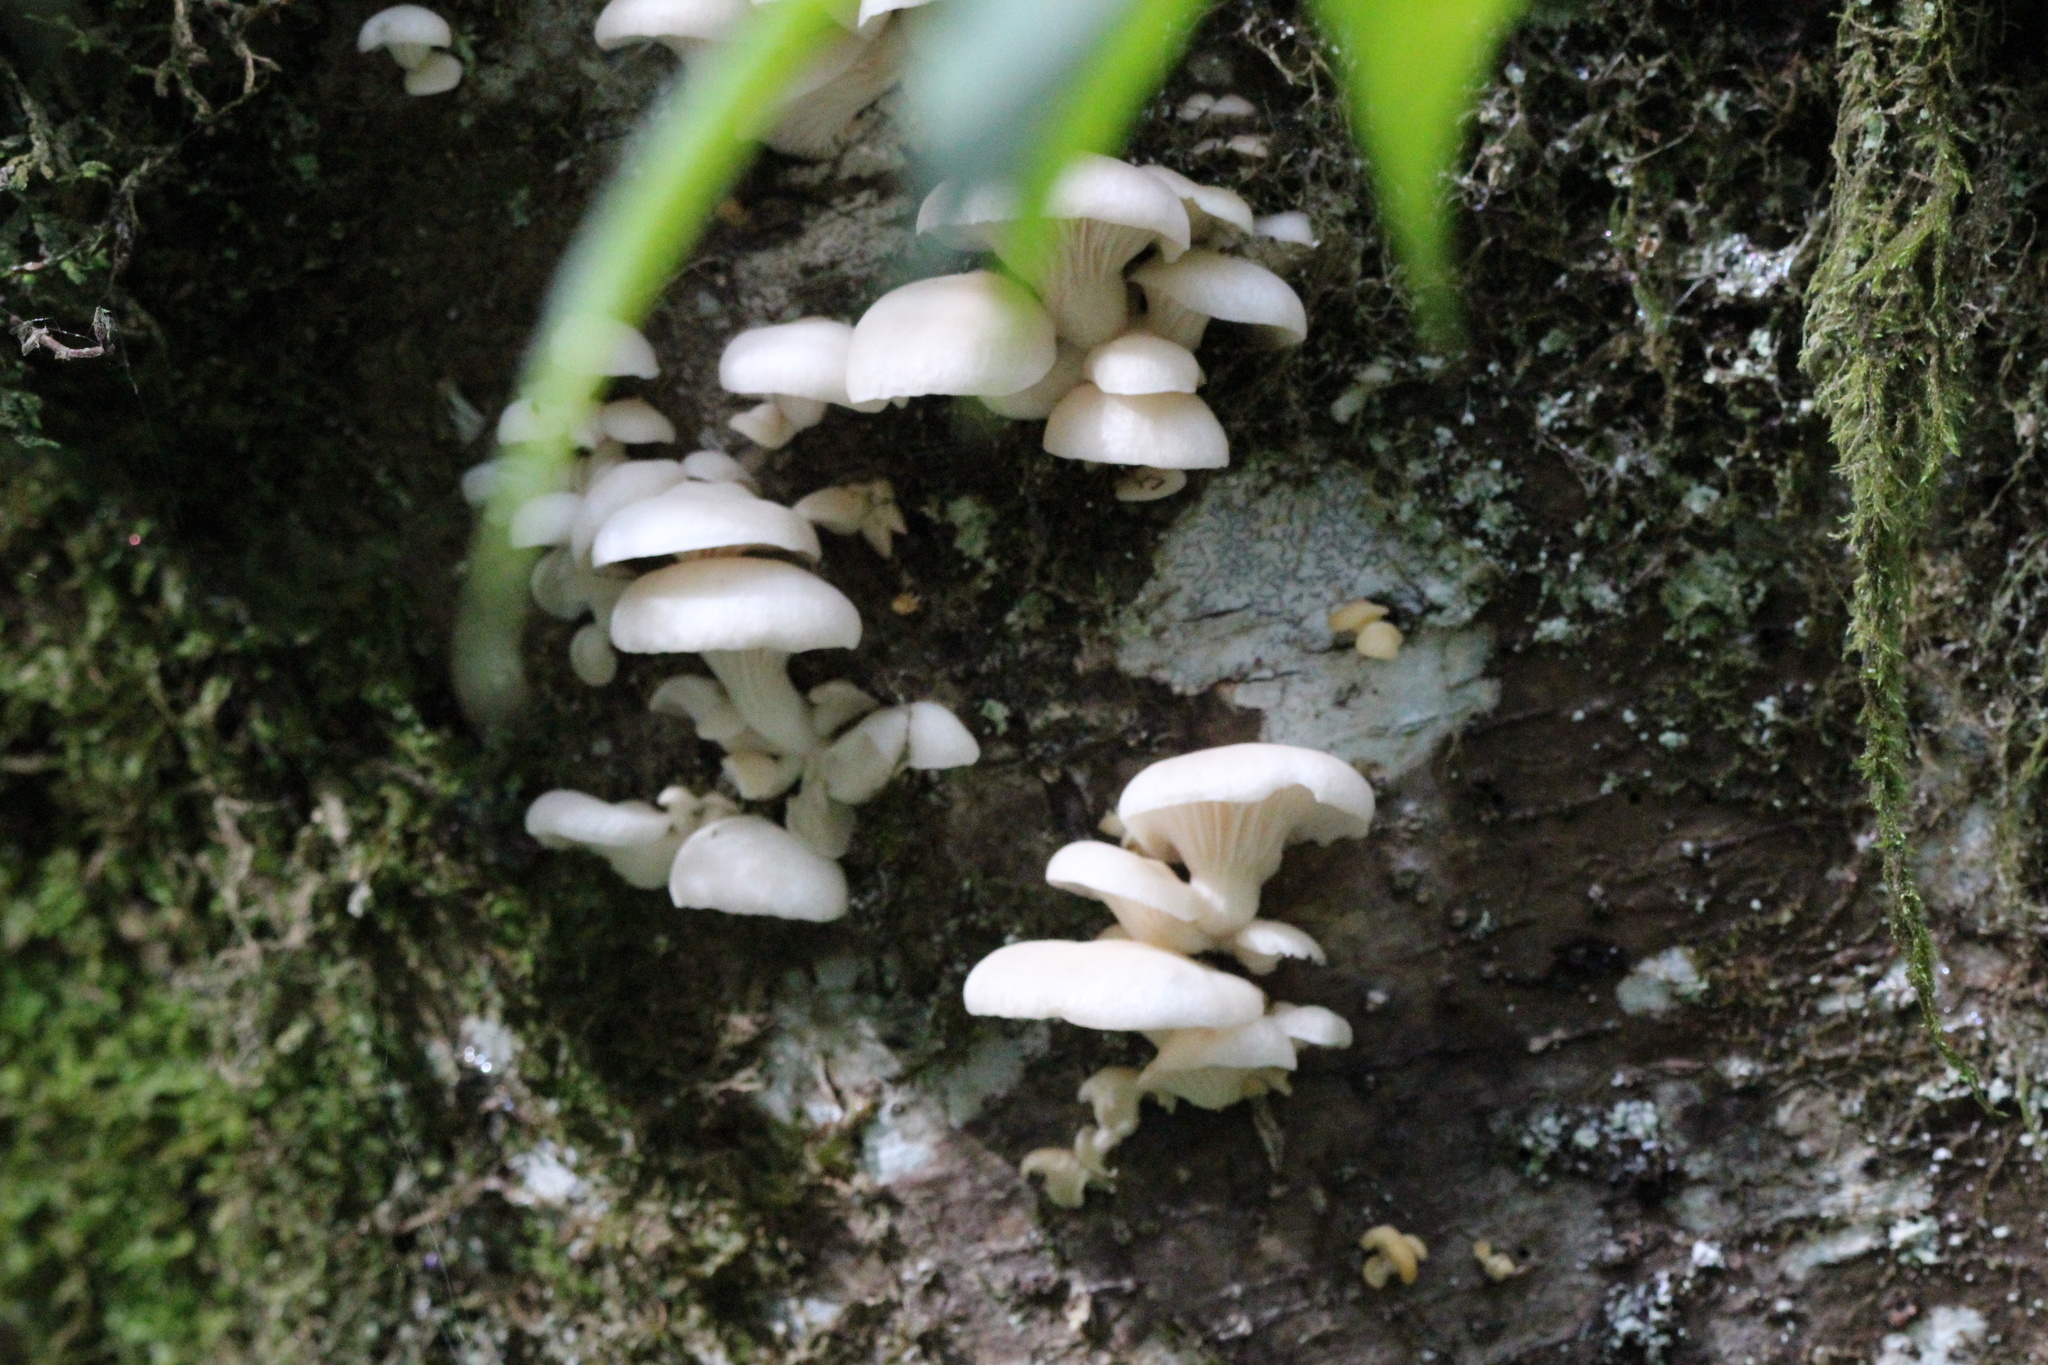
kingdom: Fungi
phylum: Basidiomycota
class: Agaricomycetes
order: Agaricales
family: Pleurotaceae
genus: Pleurotus
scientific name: Pleurotus pulmonarius
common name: Pale oyster
